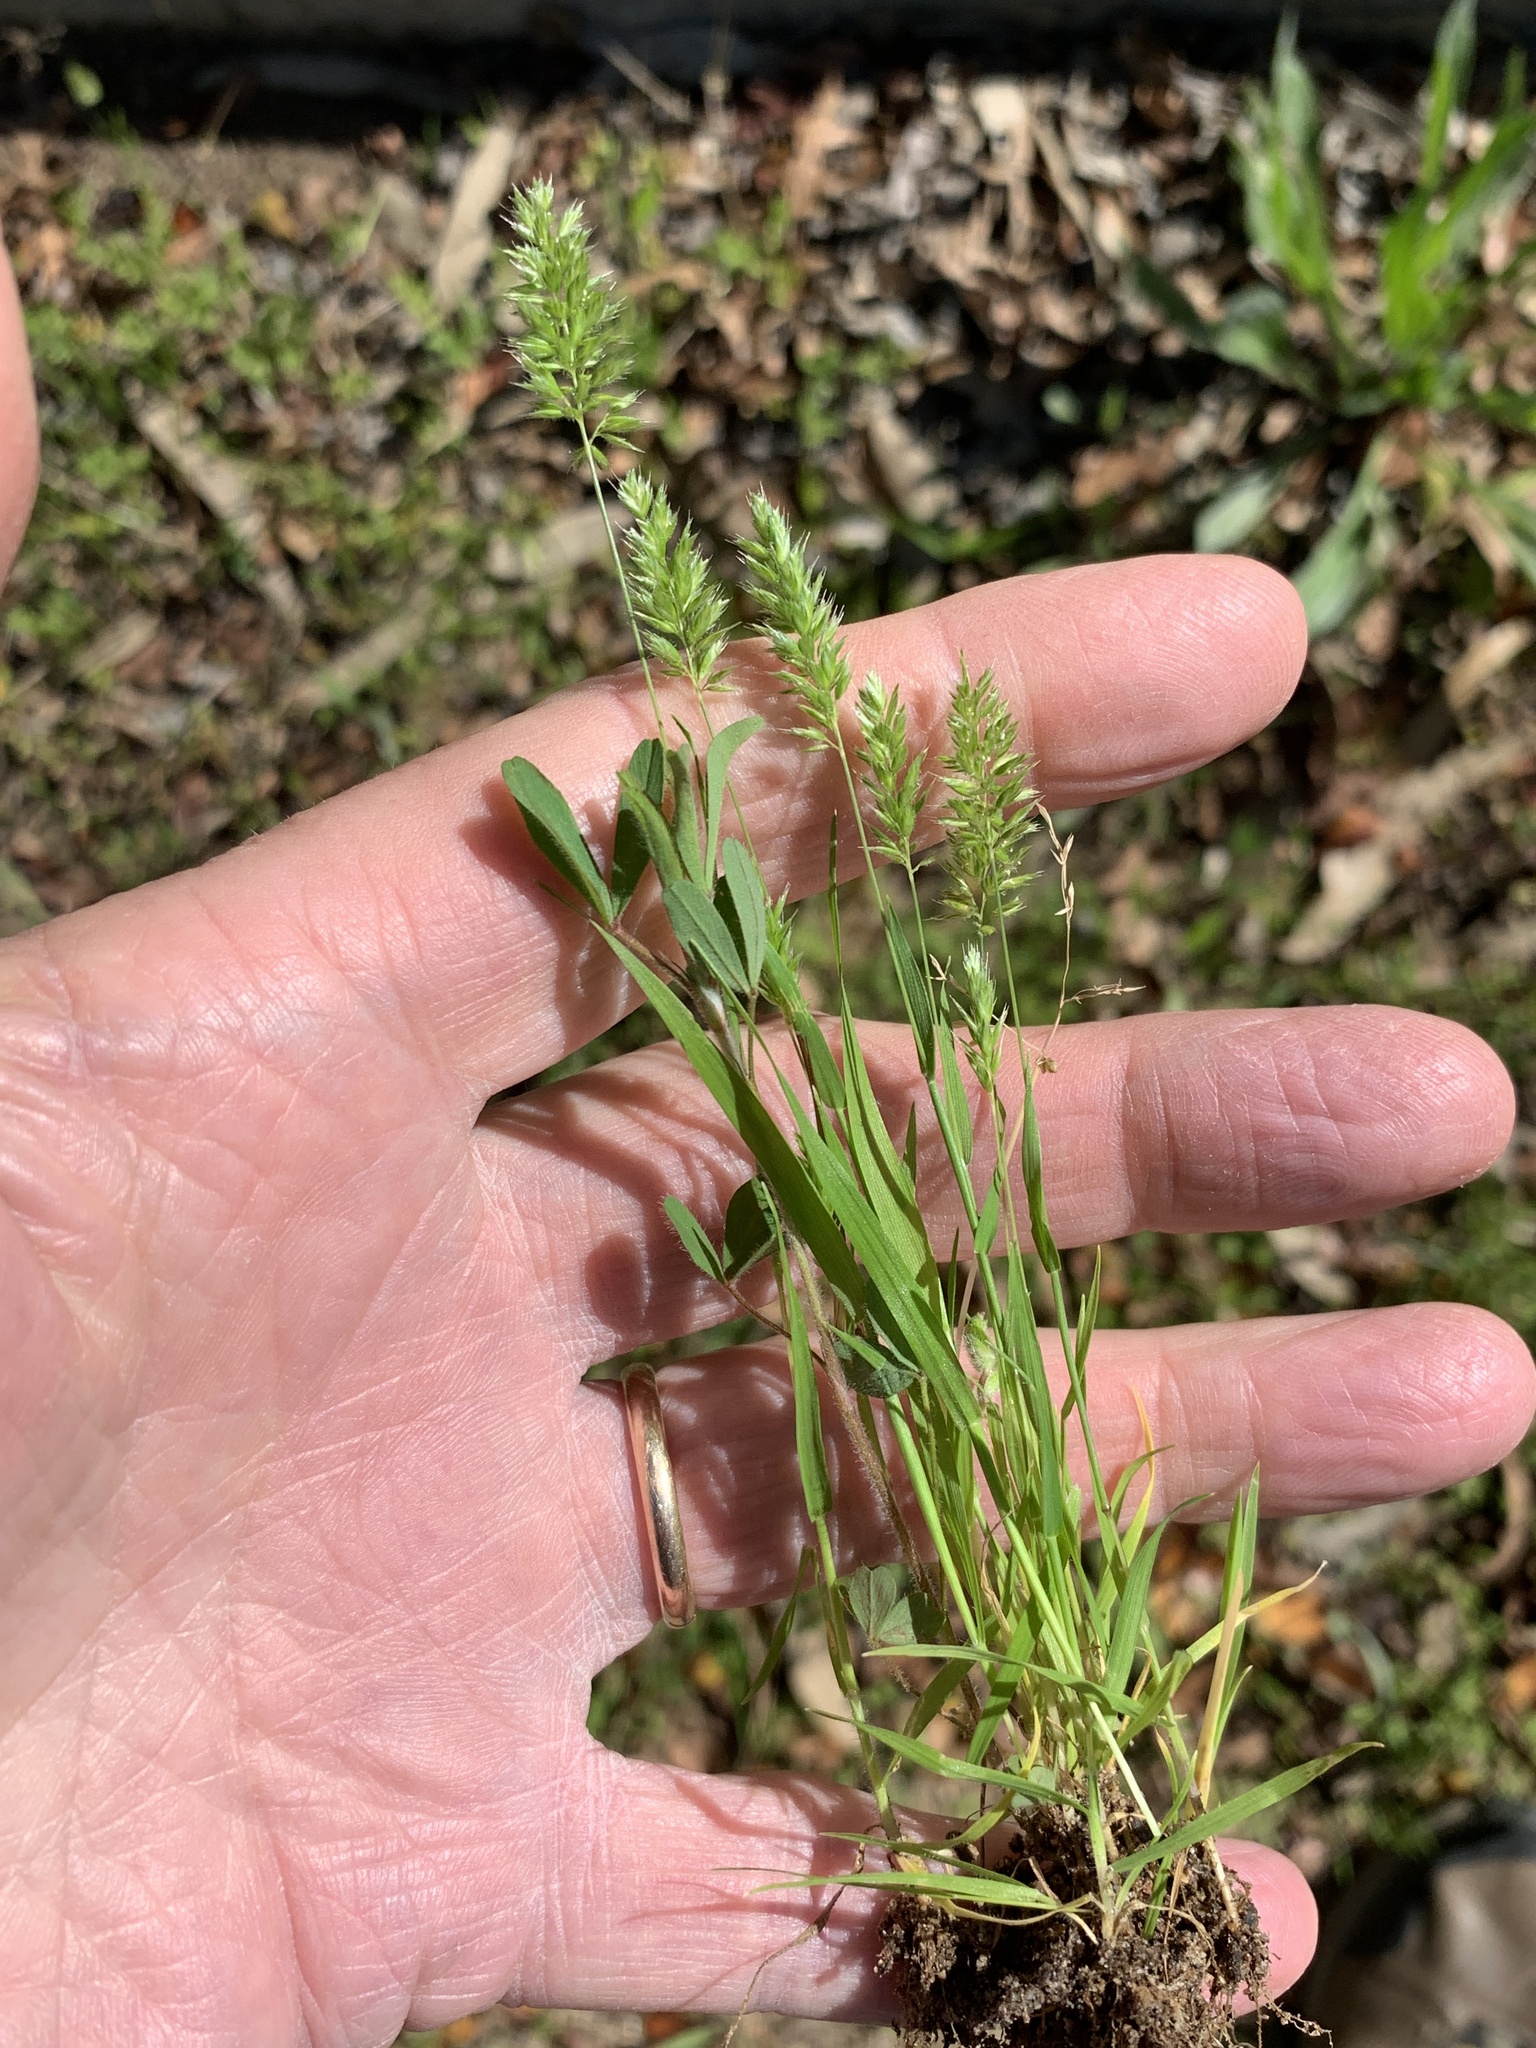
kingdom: Plantae
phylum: Tracheophyta
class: Liliopsida
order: Poales
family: Poaceae
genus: Rostraria
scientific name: Rostraria cristata
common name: Mediterranean hair-grass
